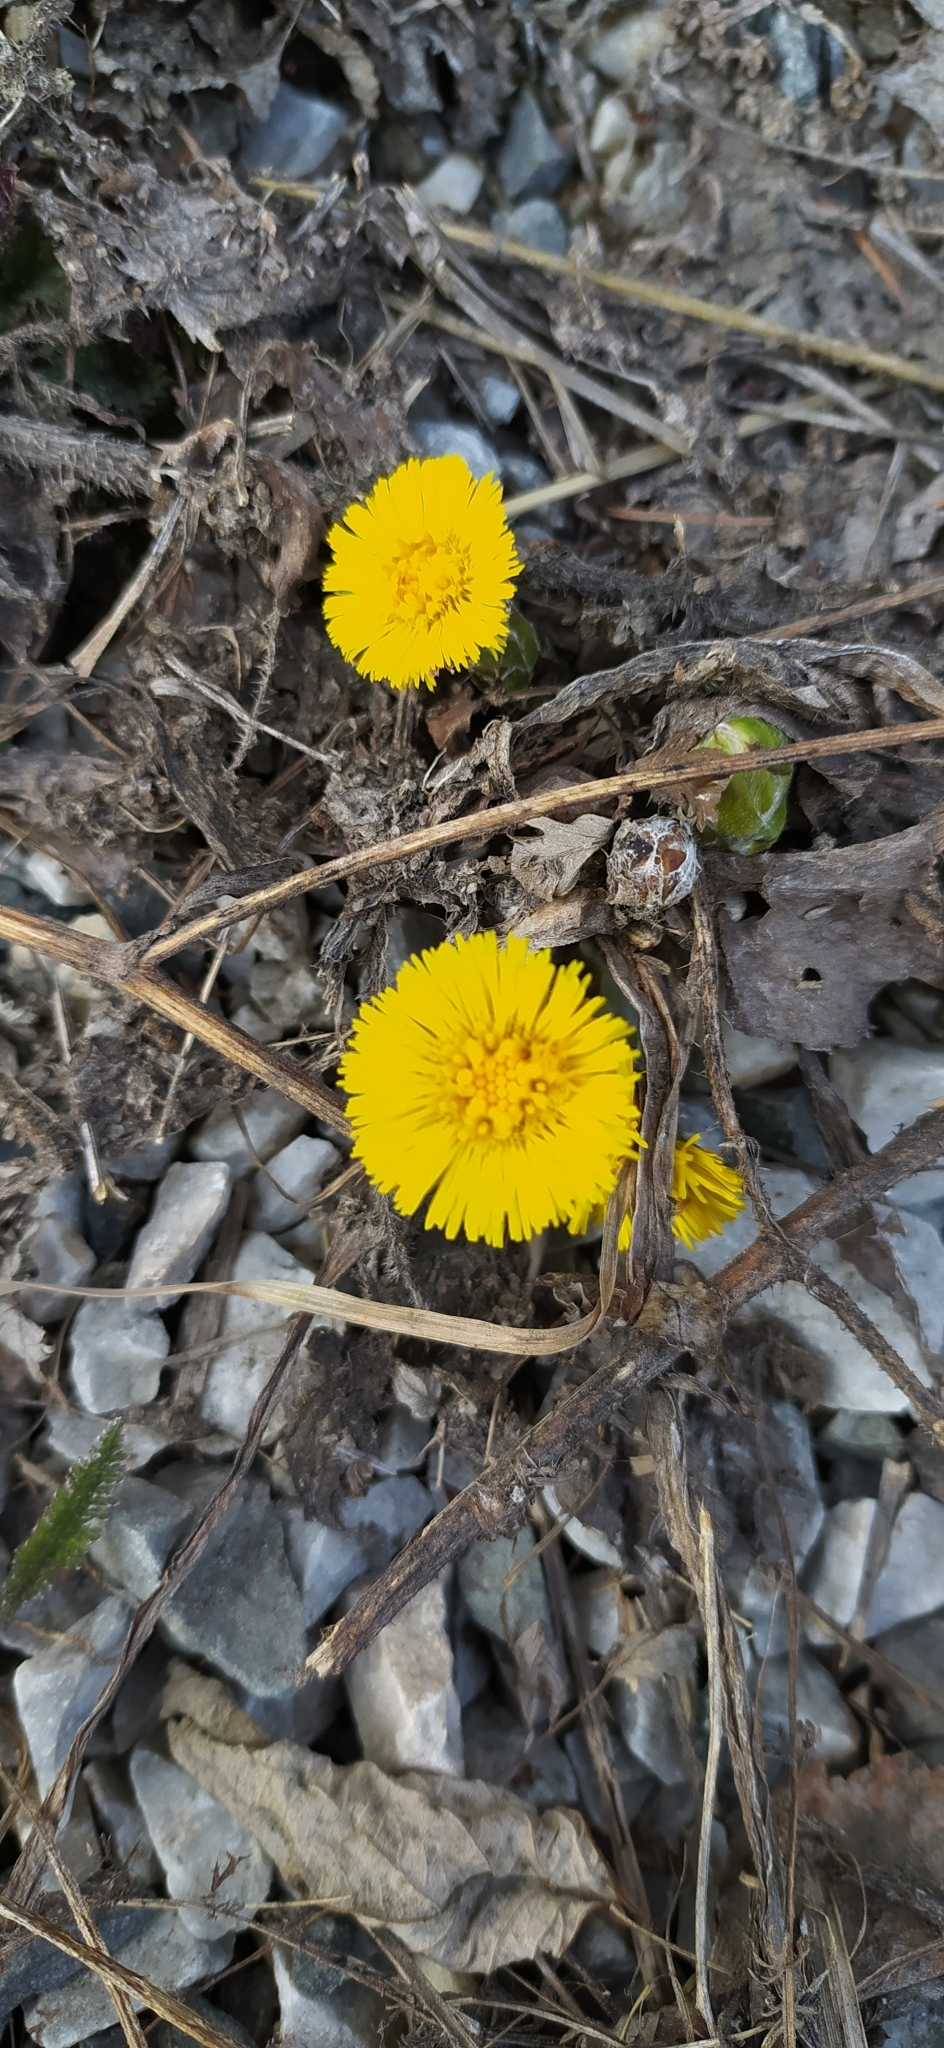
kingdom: Plantae
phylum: Tracheophyta
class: Magnoliopsida
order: Asterales
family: Asteraceae
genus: Tussilago
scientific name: Tussilago farfara
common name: Coltsfoot
